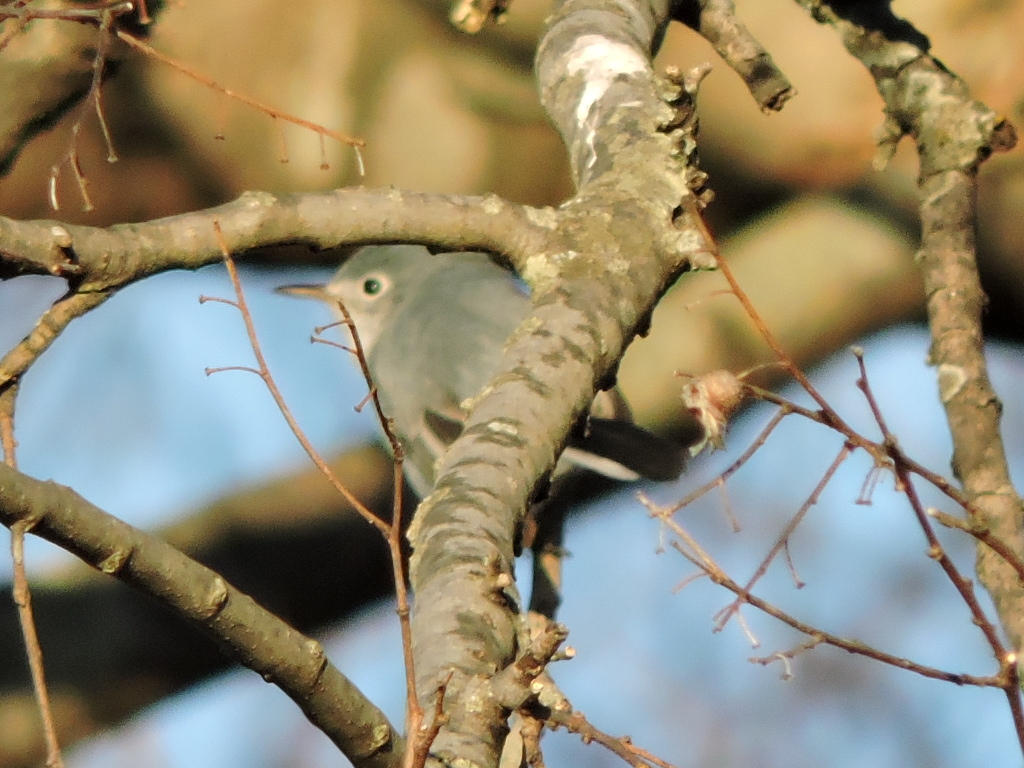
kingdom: Animalia
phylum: Chordata
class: Aves
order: Passeriformes
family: Polioptilidae
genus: Polioptila
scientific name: Polioptila caerulea
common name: Blue-gray gnatcatcher
